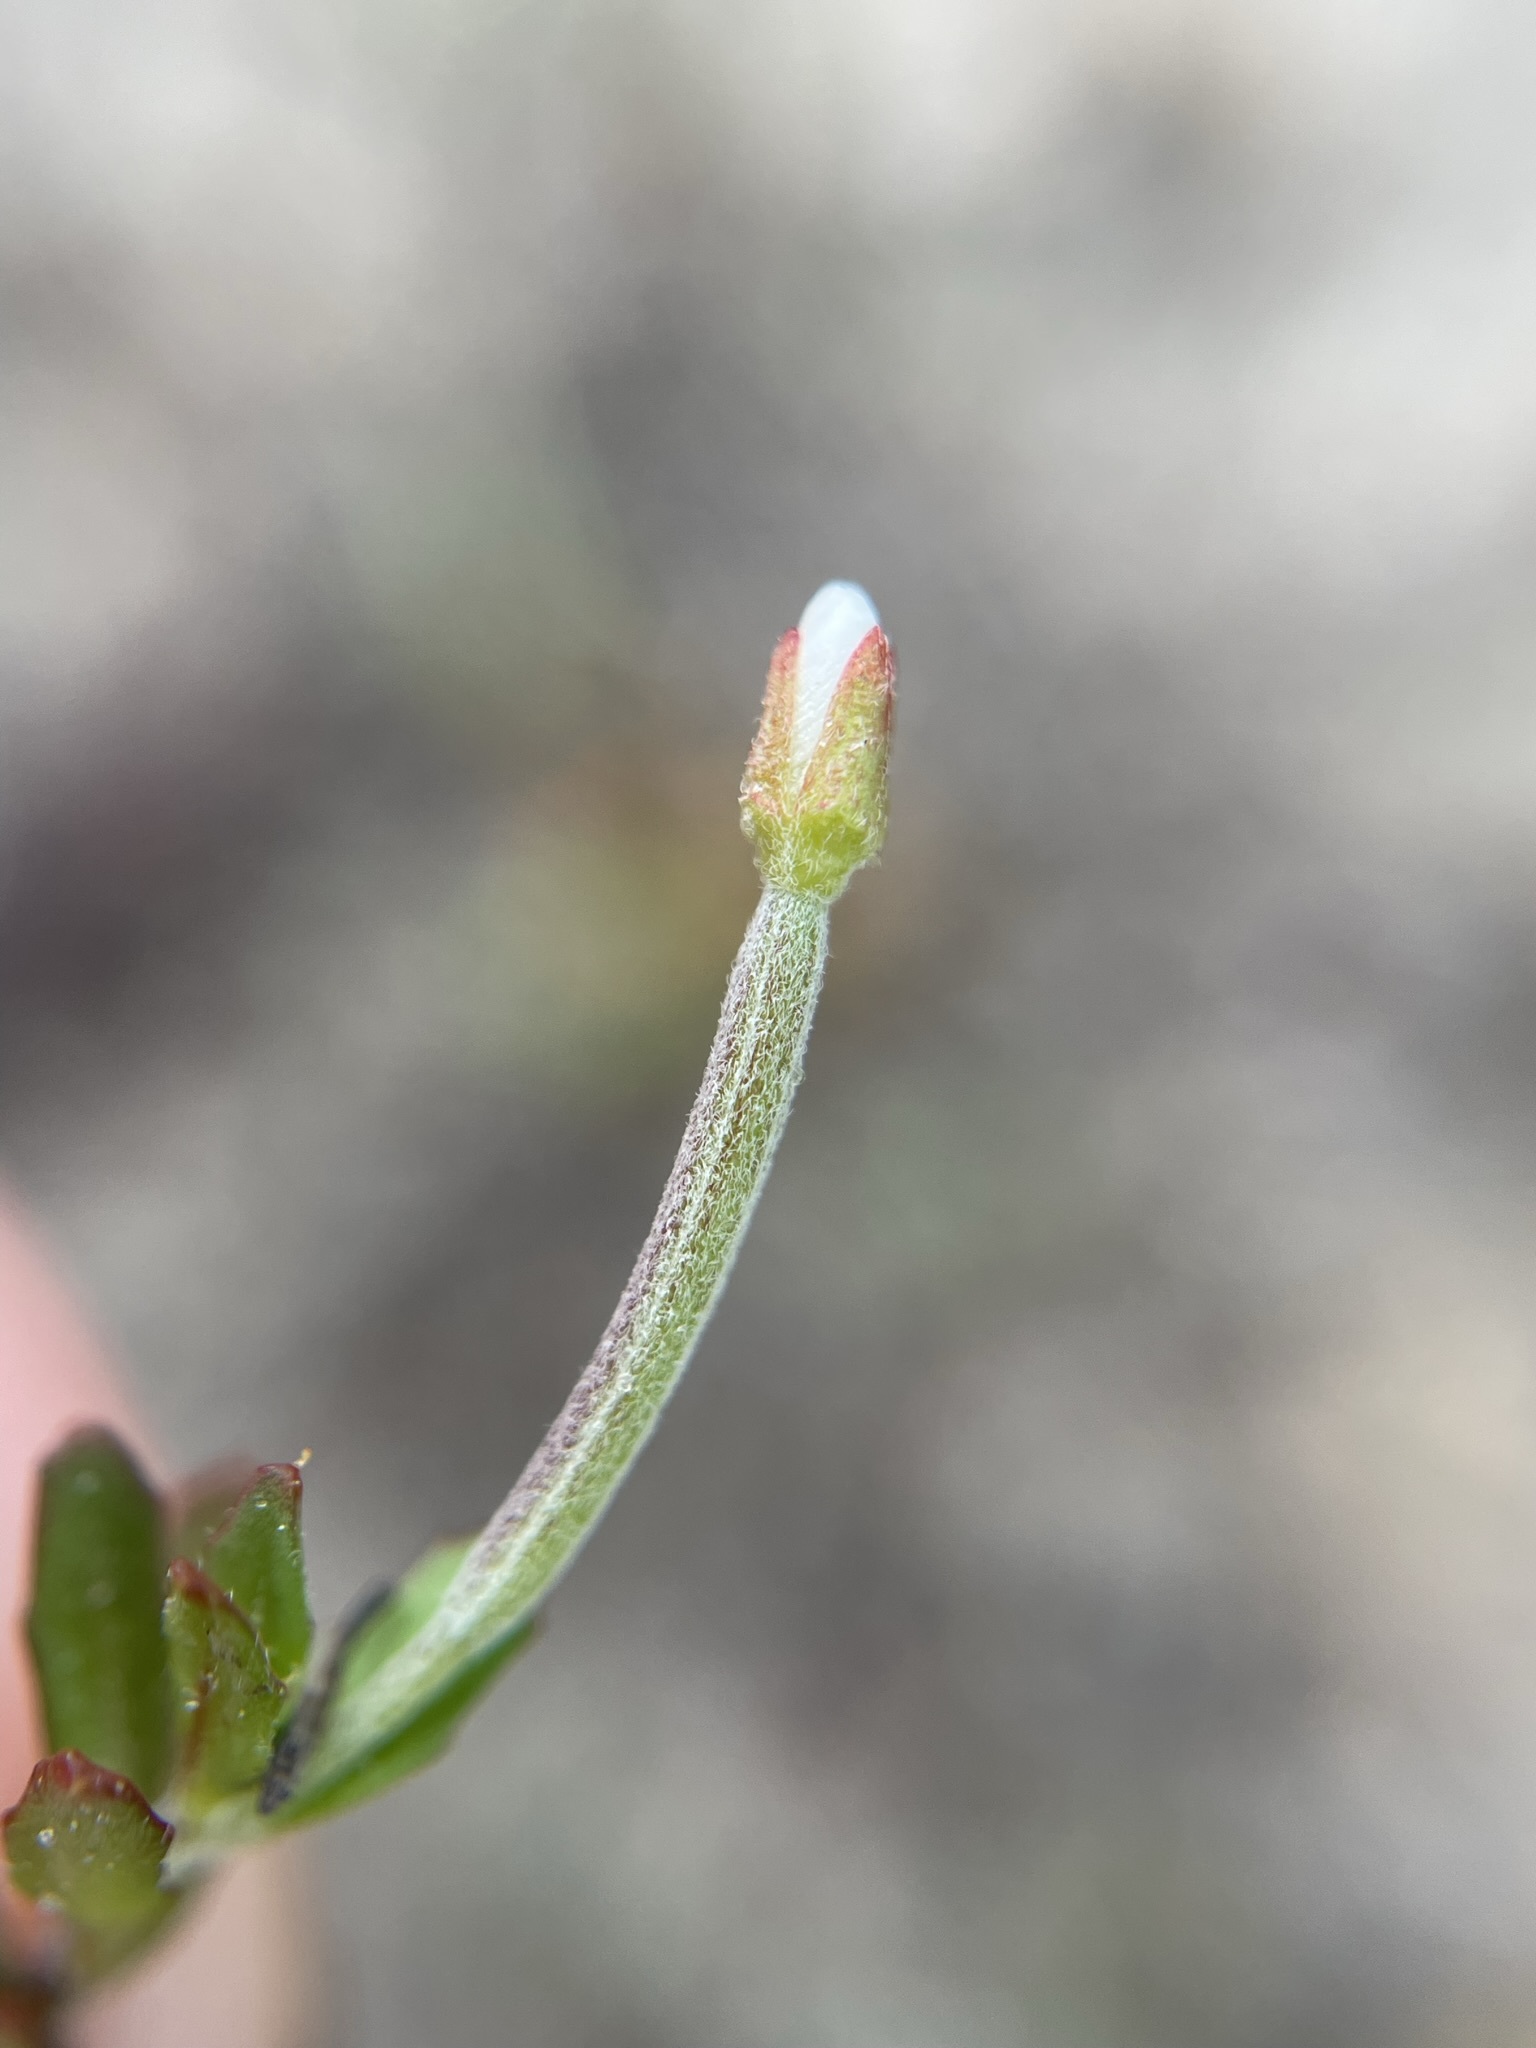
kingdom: Plantae
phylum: Tracheophyta
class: Magnoliopsida
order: Myrtales
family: Onagraceae
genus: Epilobium
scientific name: Epilobium hectorii
